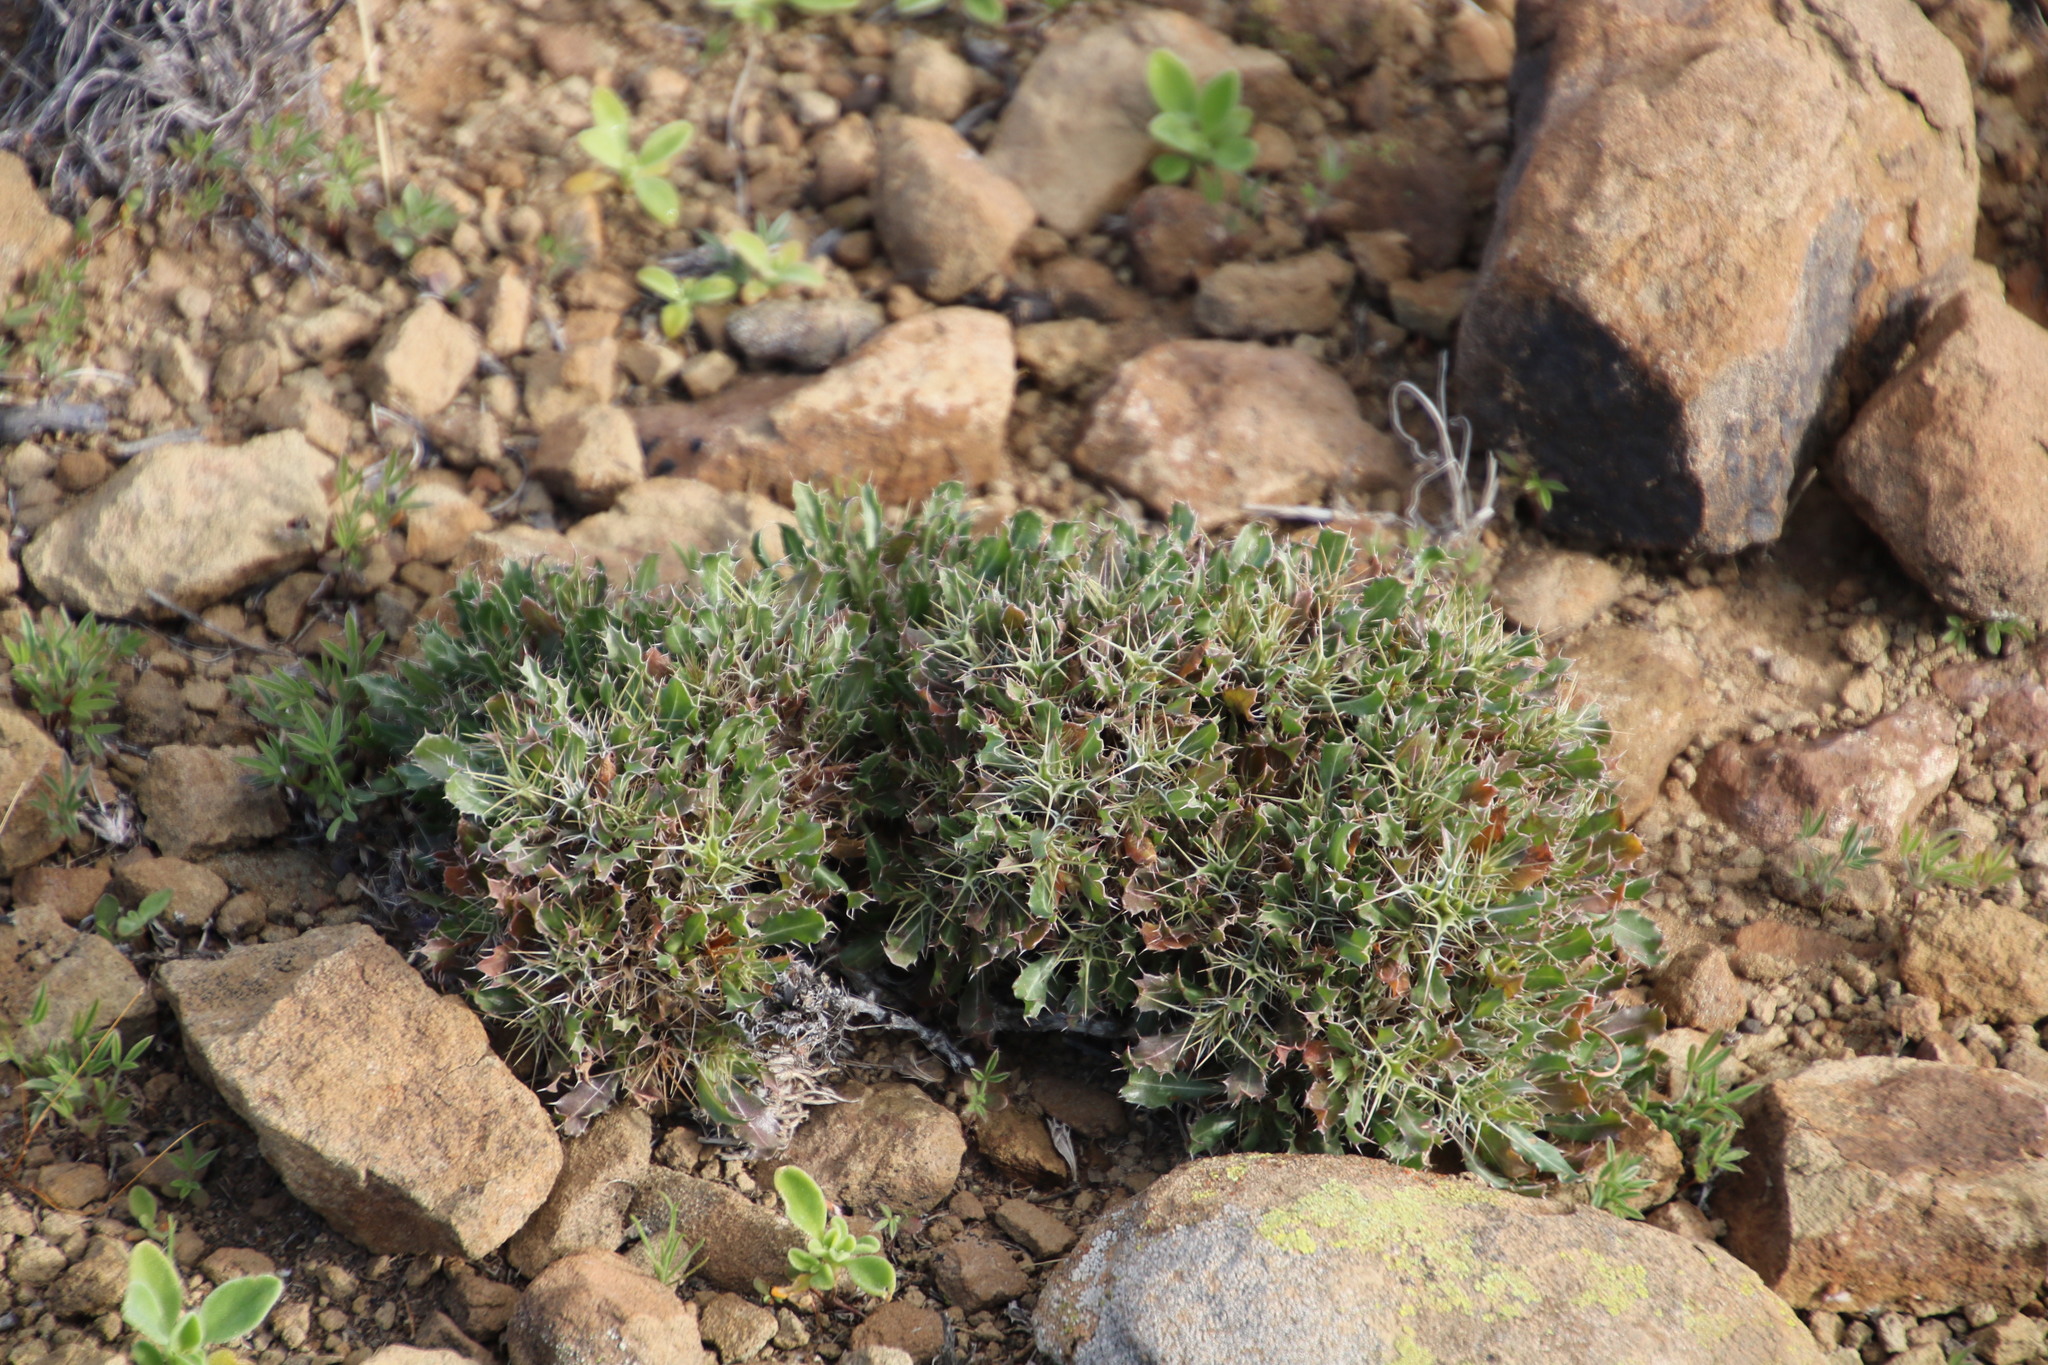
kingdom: Plantae
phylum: Tracheophyta
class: Magnoliopsida
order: Lamiales
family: Acanthaceae
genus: Blepharis
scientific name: Blepharis mitrata
